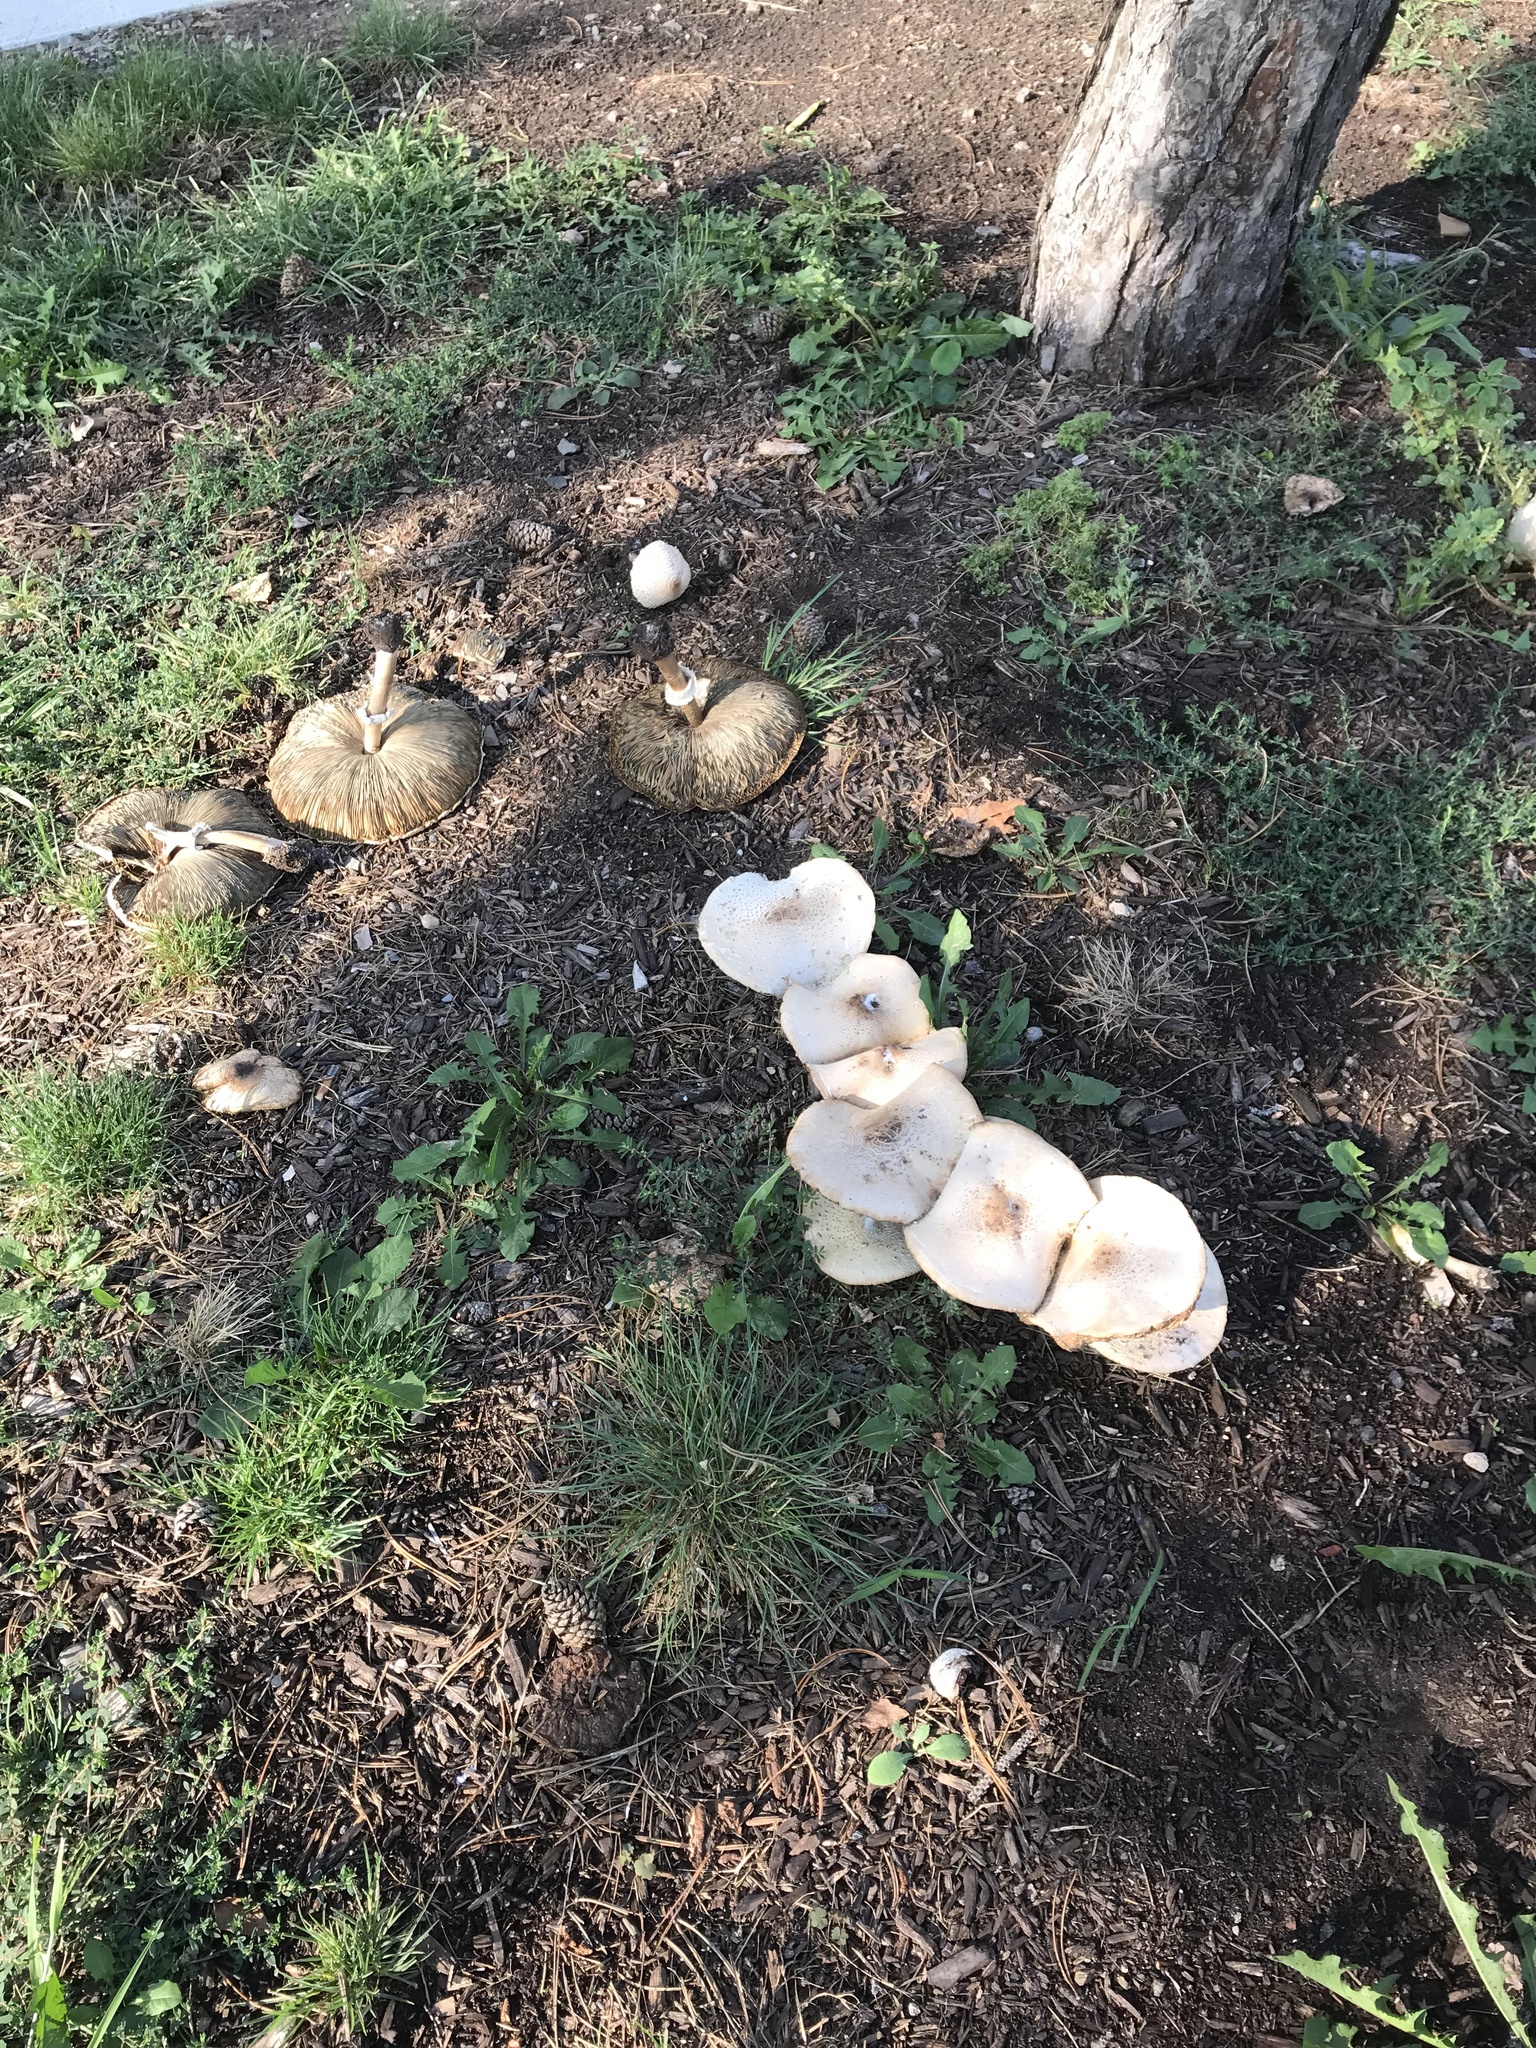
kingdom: Fungi
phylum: Basidiomycota
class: Agaricomycetes
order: Agaricales
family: Agaricaceae
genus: Chlorophyllum
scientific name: Chlorophyllum molybdites
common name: False parasol
